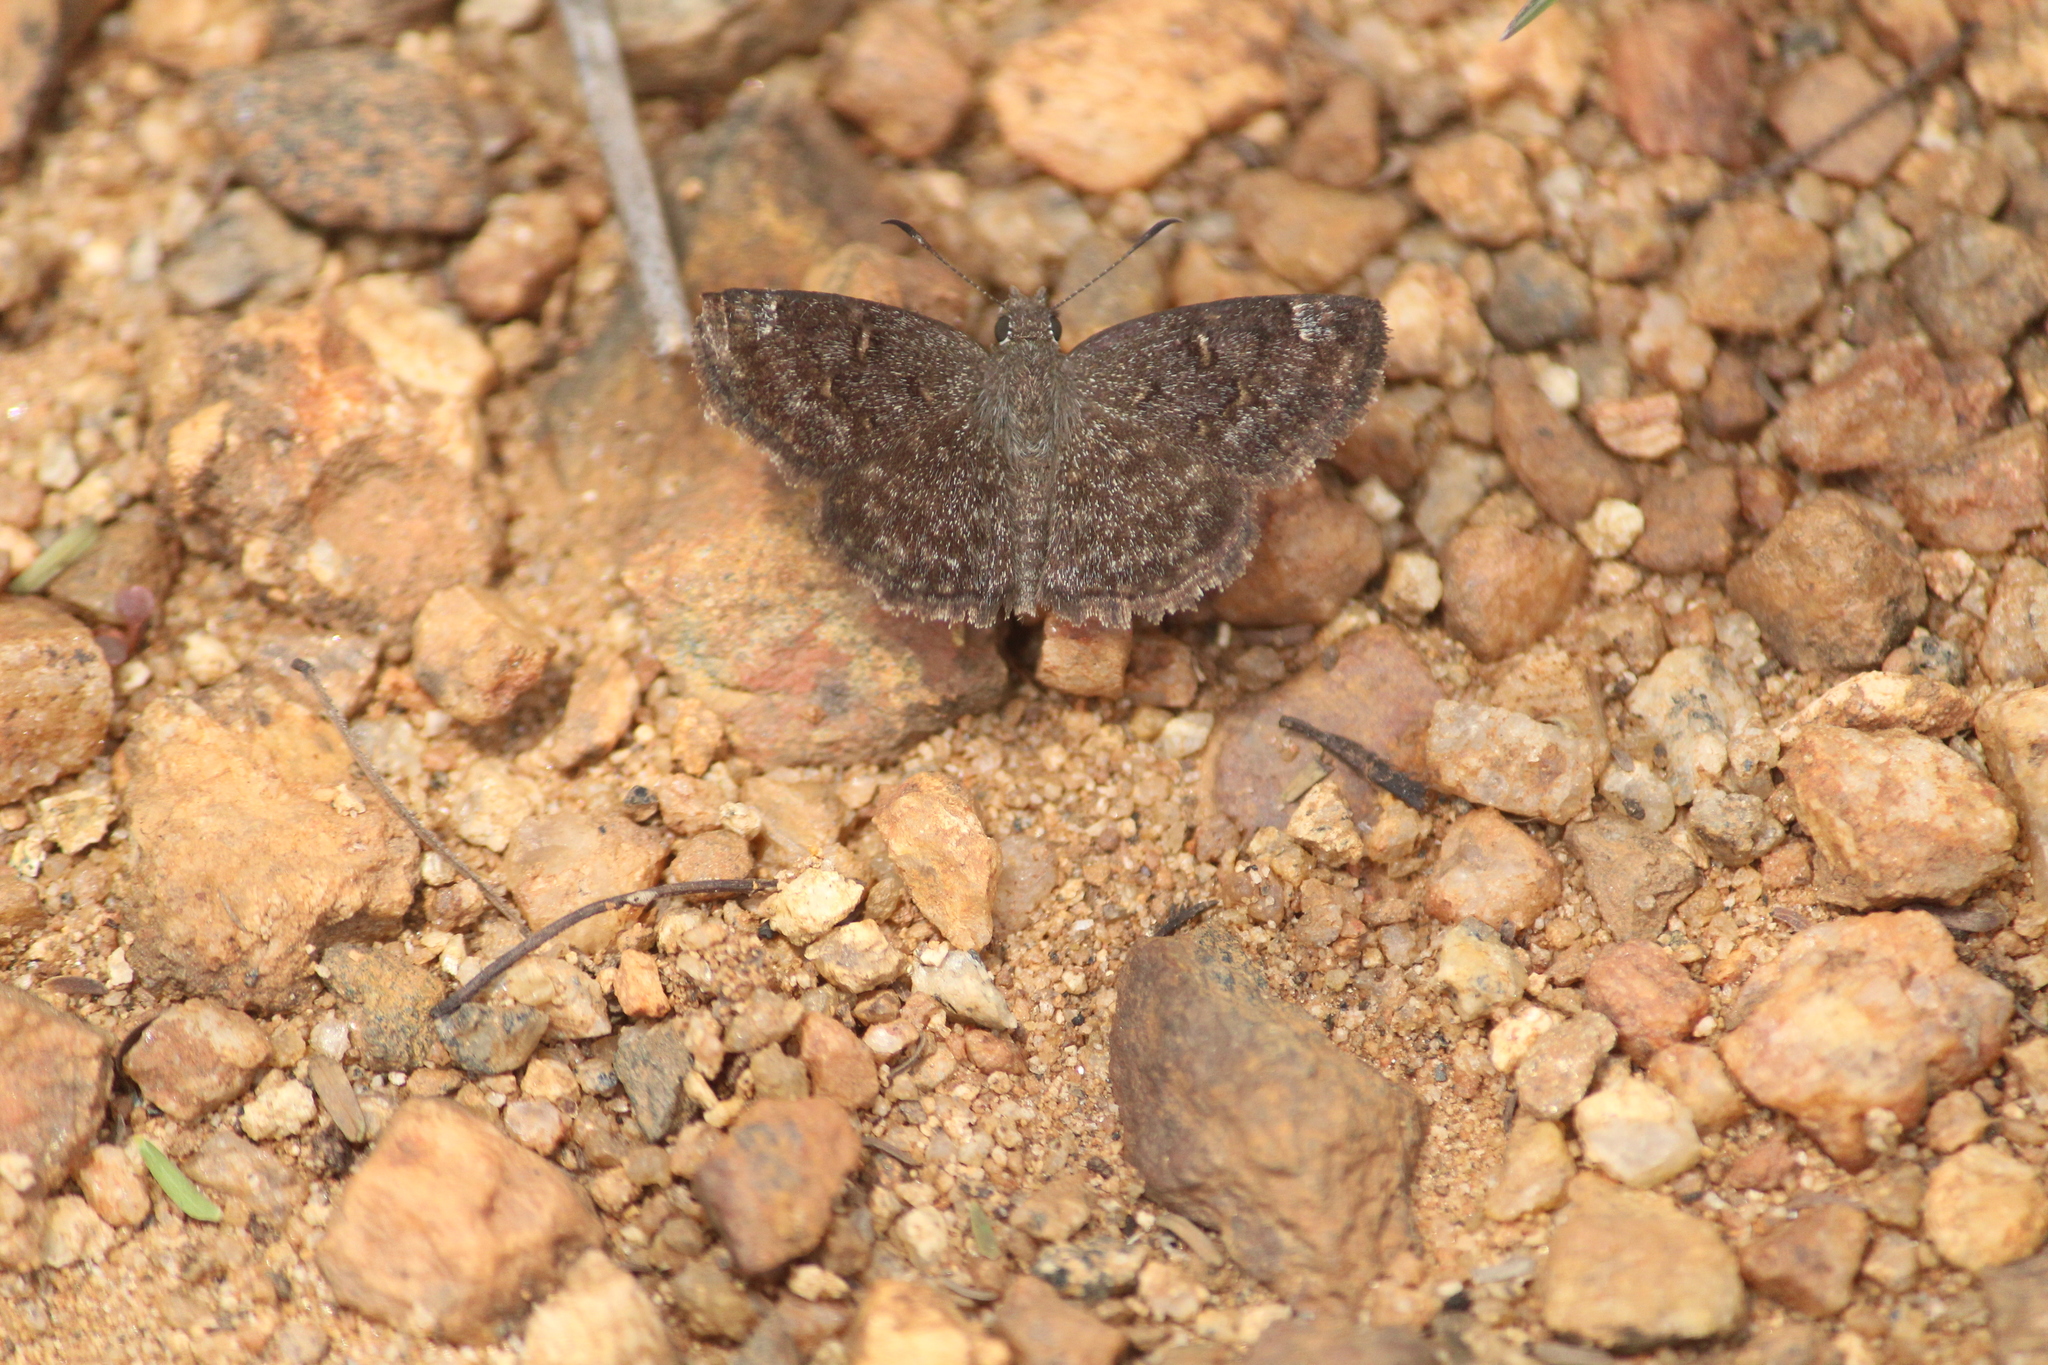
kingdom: Animalia
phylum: Arthropoda
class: Insecta
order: Lepidoptera
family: Hesperiidae
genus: Sarangesa
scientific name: Sarangesa purendra
